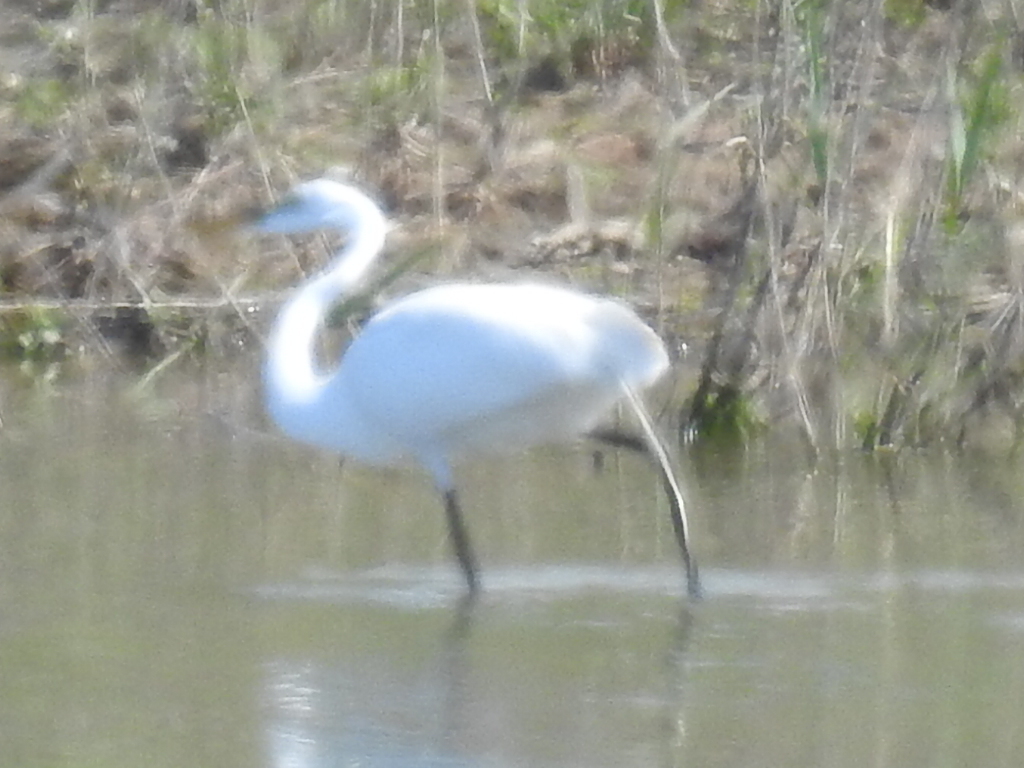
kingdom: Animalia
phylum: Chordata
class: Aves
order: Pelecaniformes
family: Ardeidae
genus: Ardea
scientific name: Ardea alba
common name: Great egret
